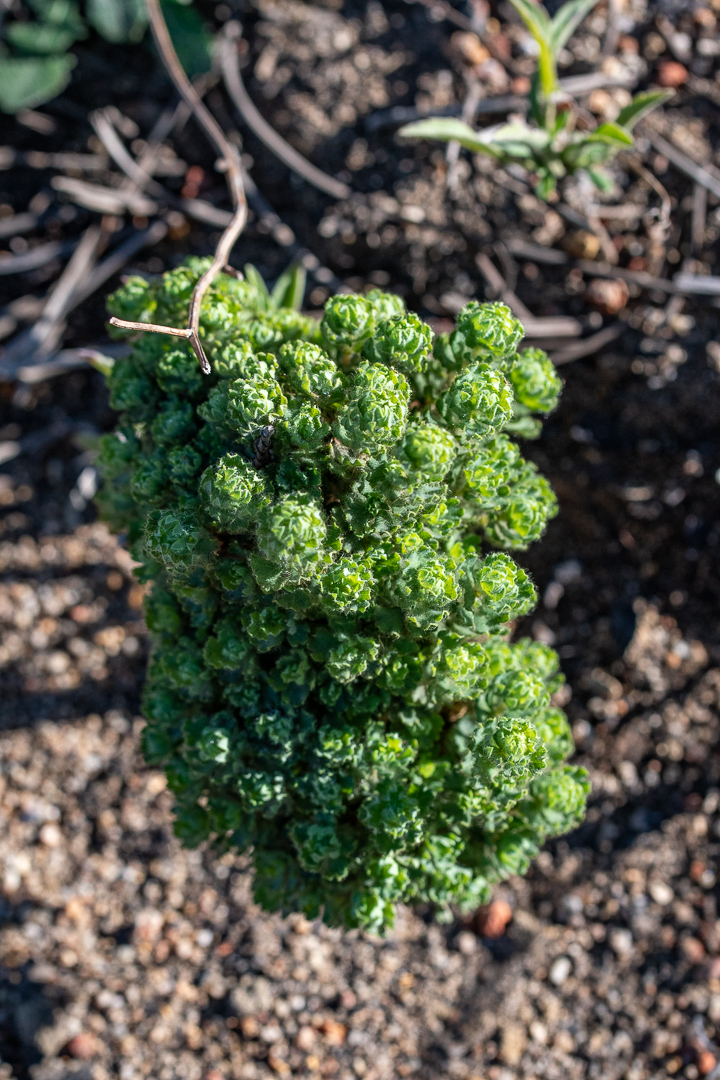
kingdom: Plantae
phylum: Tracheophyta
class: Magnoliopsida
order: Rosales
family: Rosaceae
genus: Cliffortia
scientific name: Cliffortia polygonifolia
